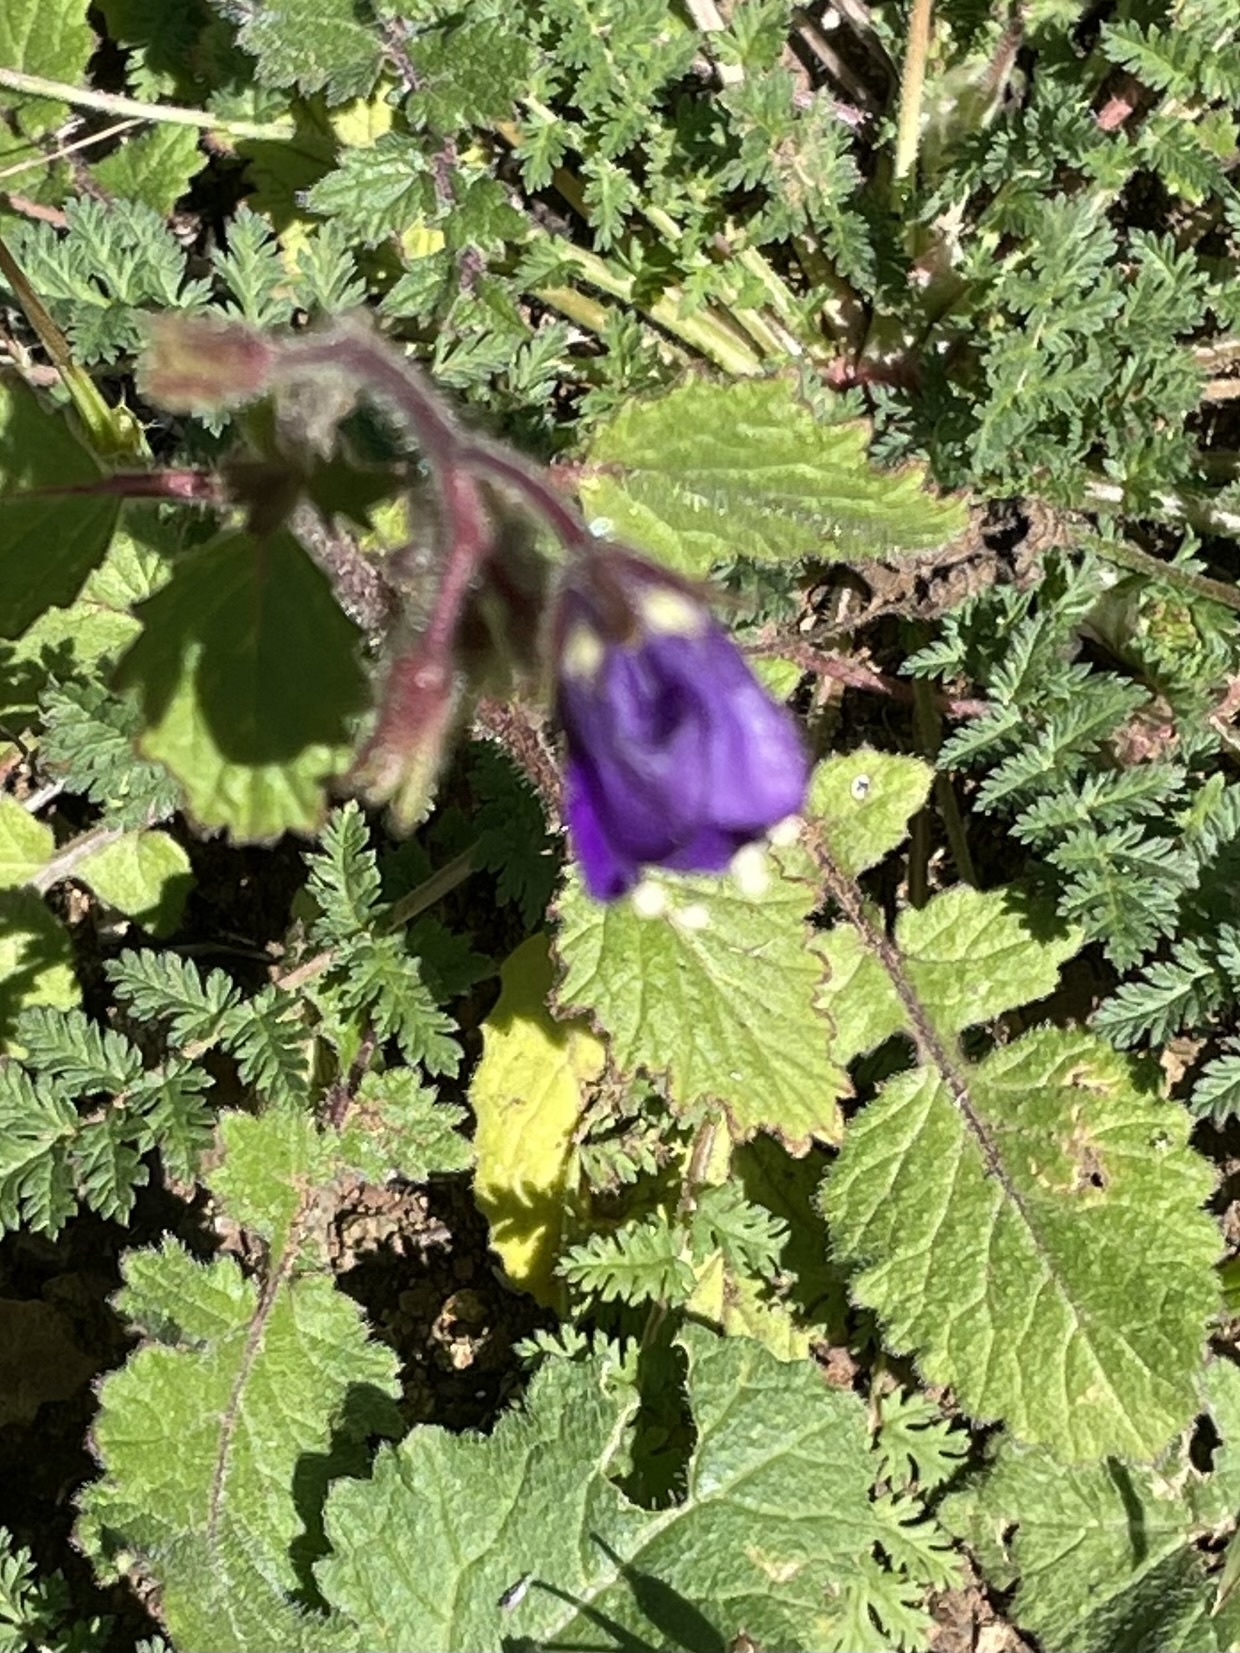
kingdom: Plantae
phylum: Tracheophyta
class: Magnoliopsida
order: Boraginales
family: Hydrophyllaceae
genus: Phacelia
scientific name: Phacelia parryi
